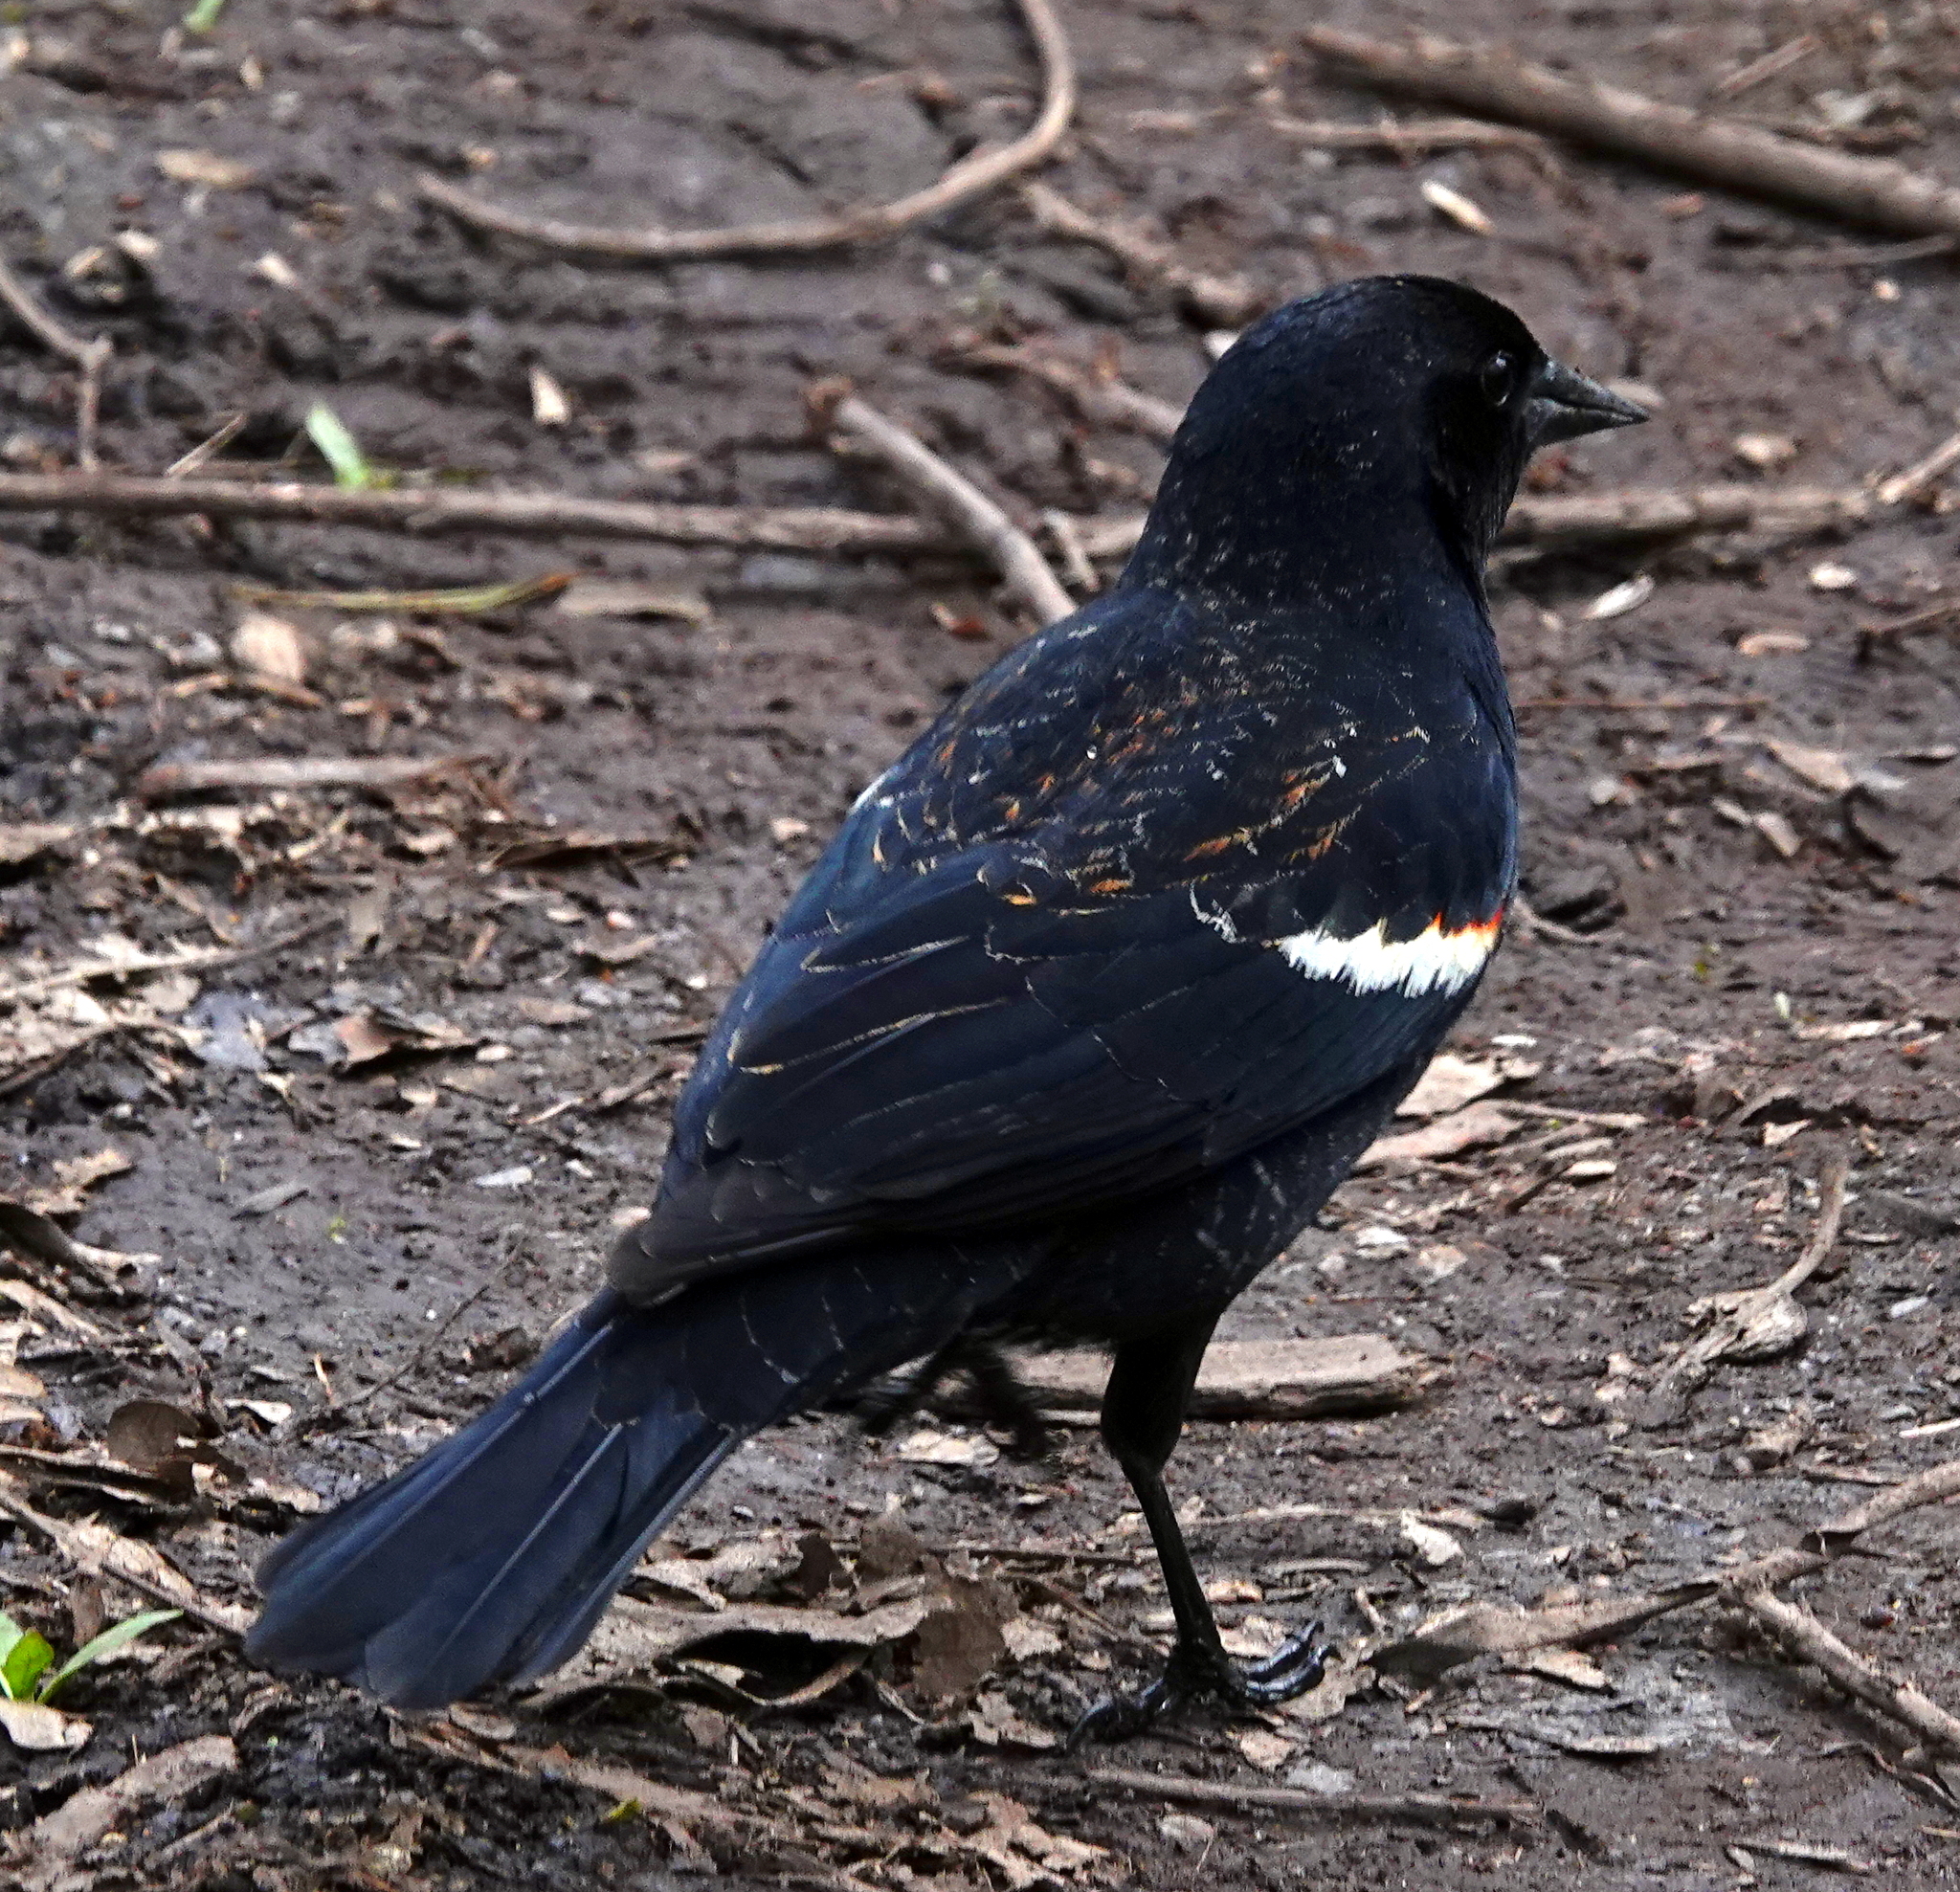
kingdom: Animalia
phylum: Chordata
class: Aves
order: Passeriformes
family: Icteridae
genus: Agelaius
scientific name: Agelaius phoeniceus
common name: Red-winged blackbird
